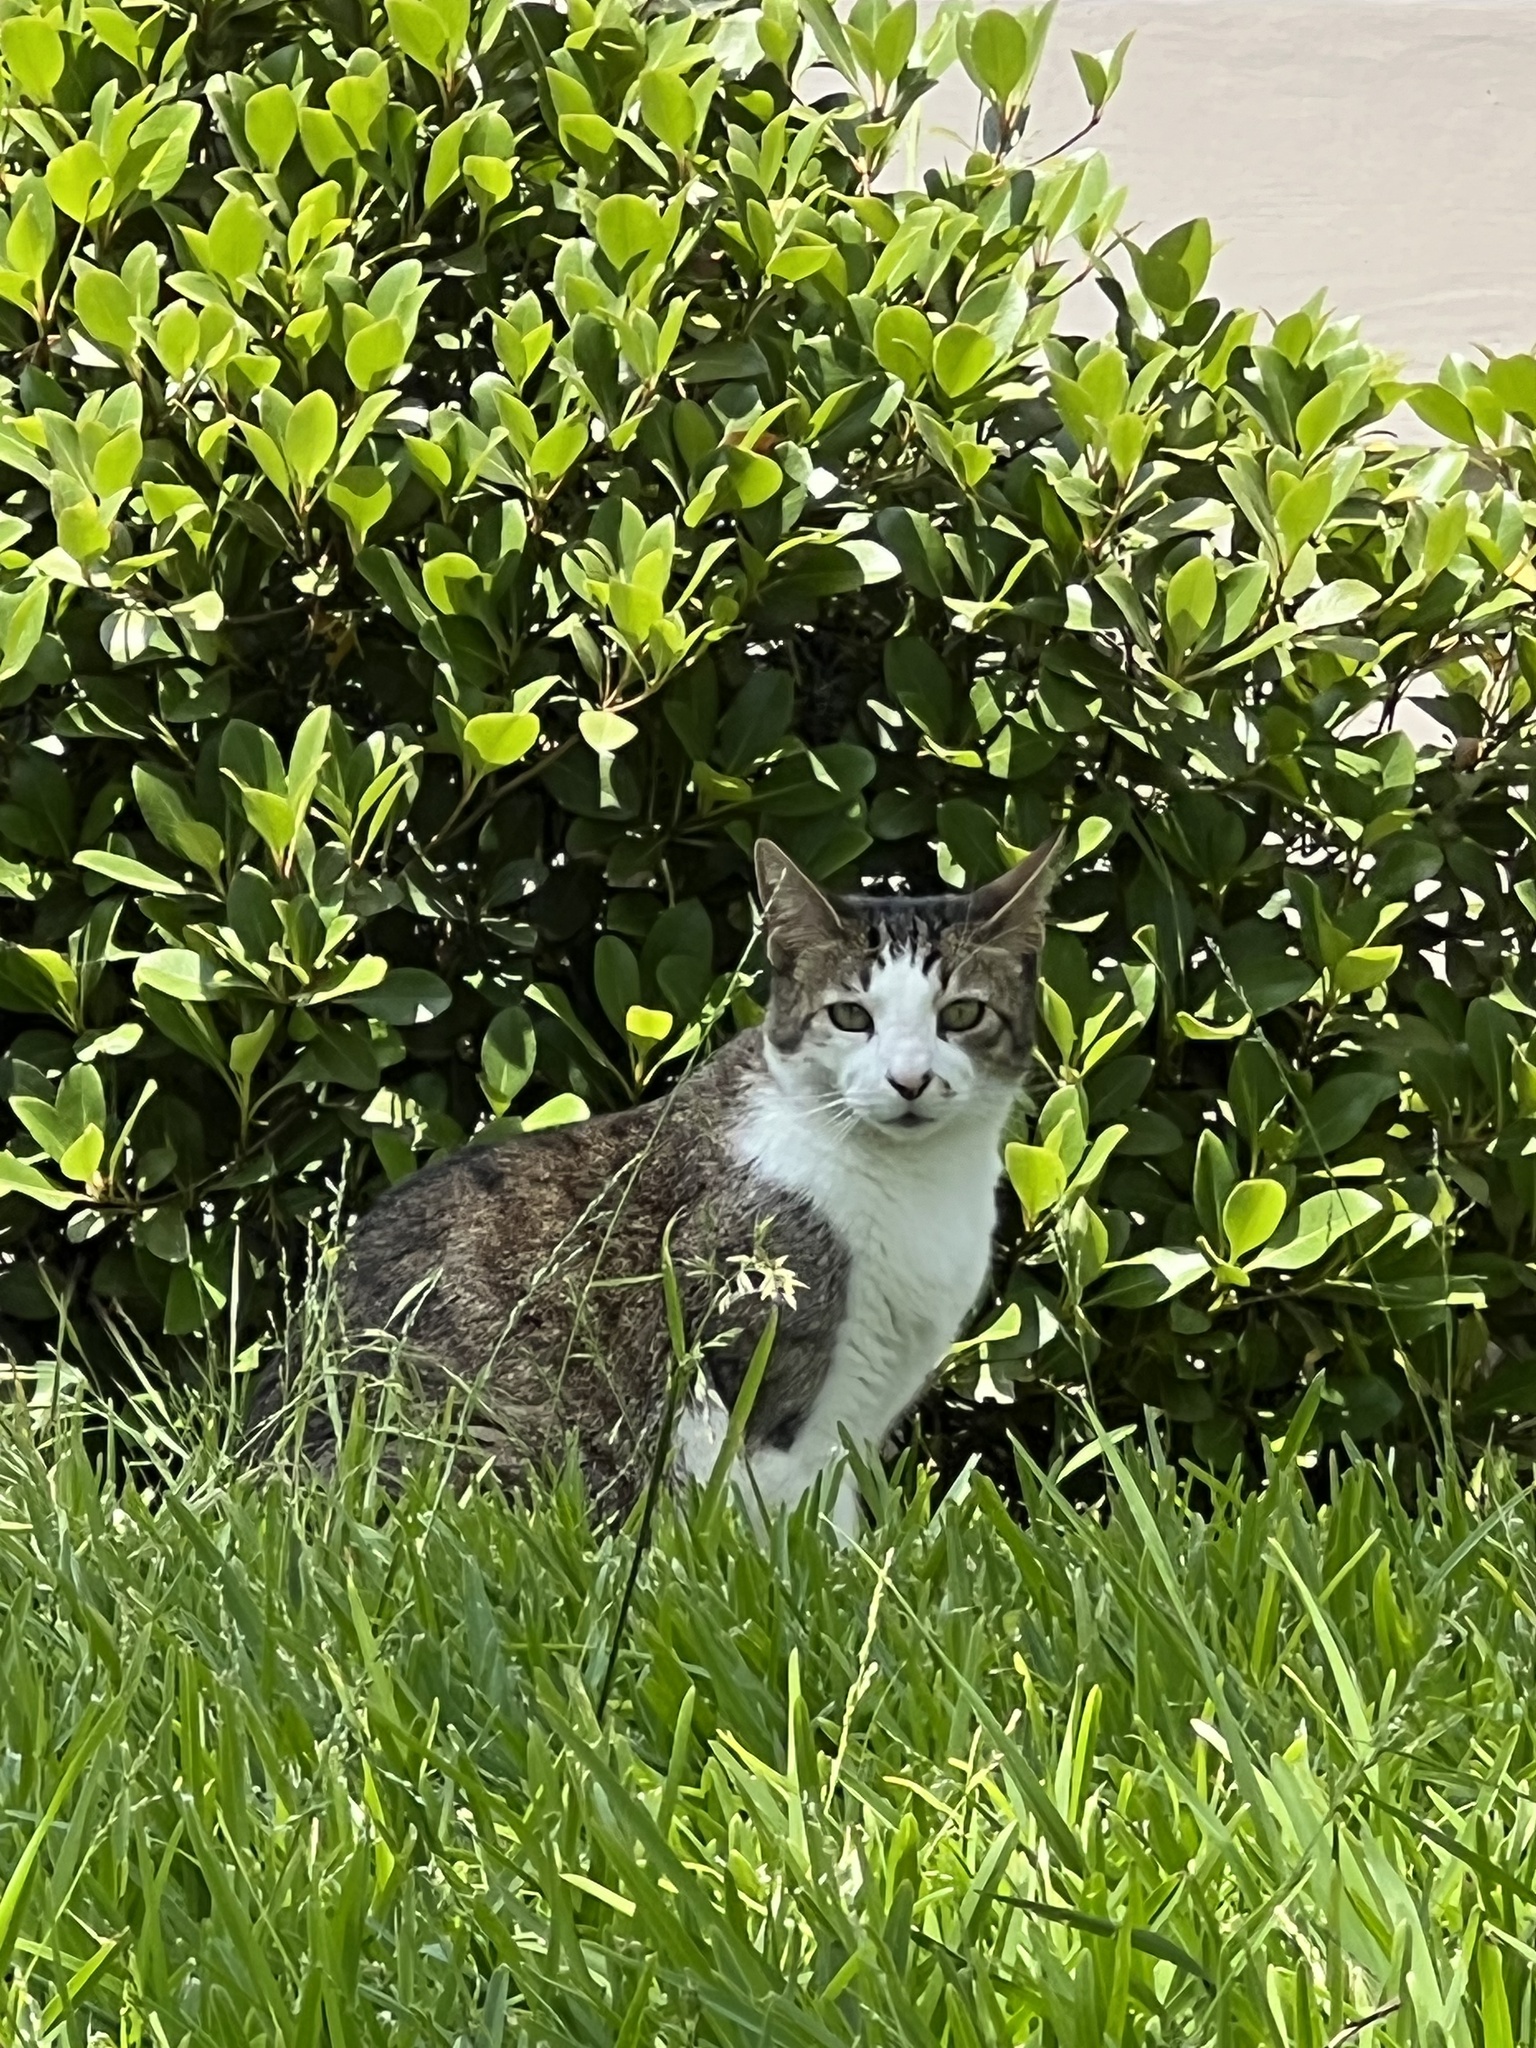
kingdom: Animalia
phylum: Chordata
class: Mammalia
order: Carnivora
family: Felidae
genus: Felis
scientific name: Felis catus
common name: Domestic cat
